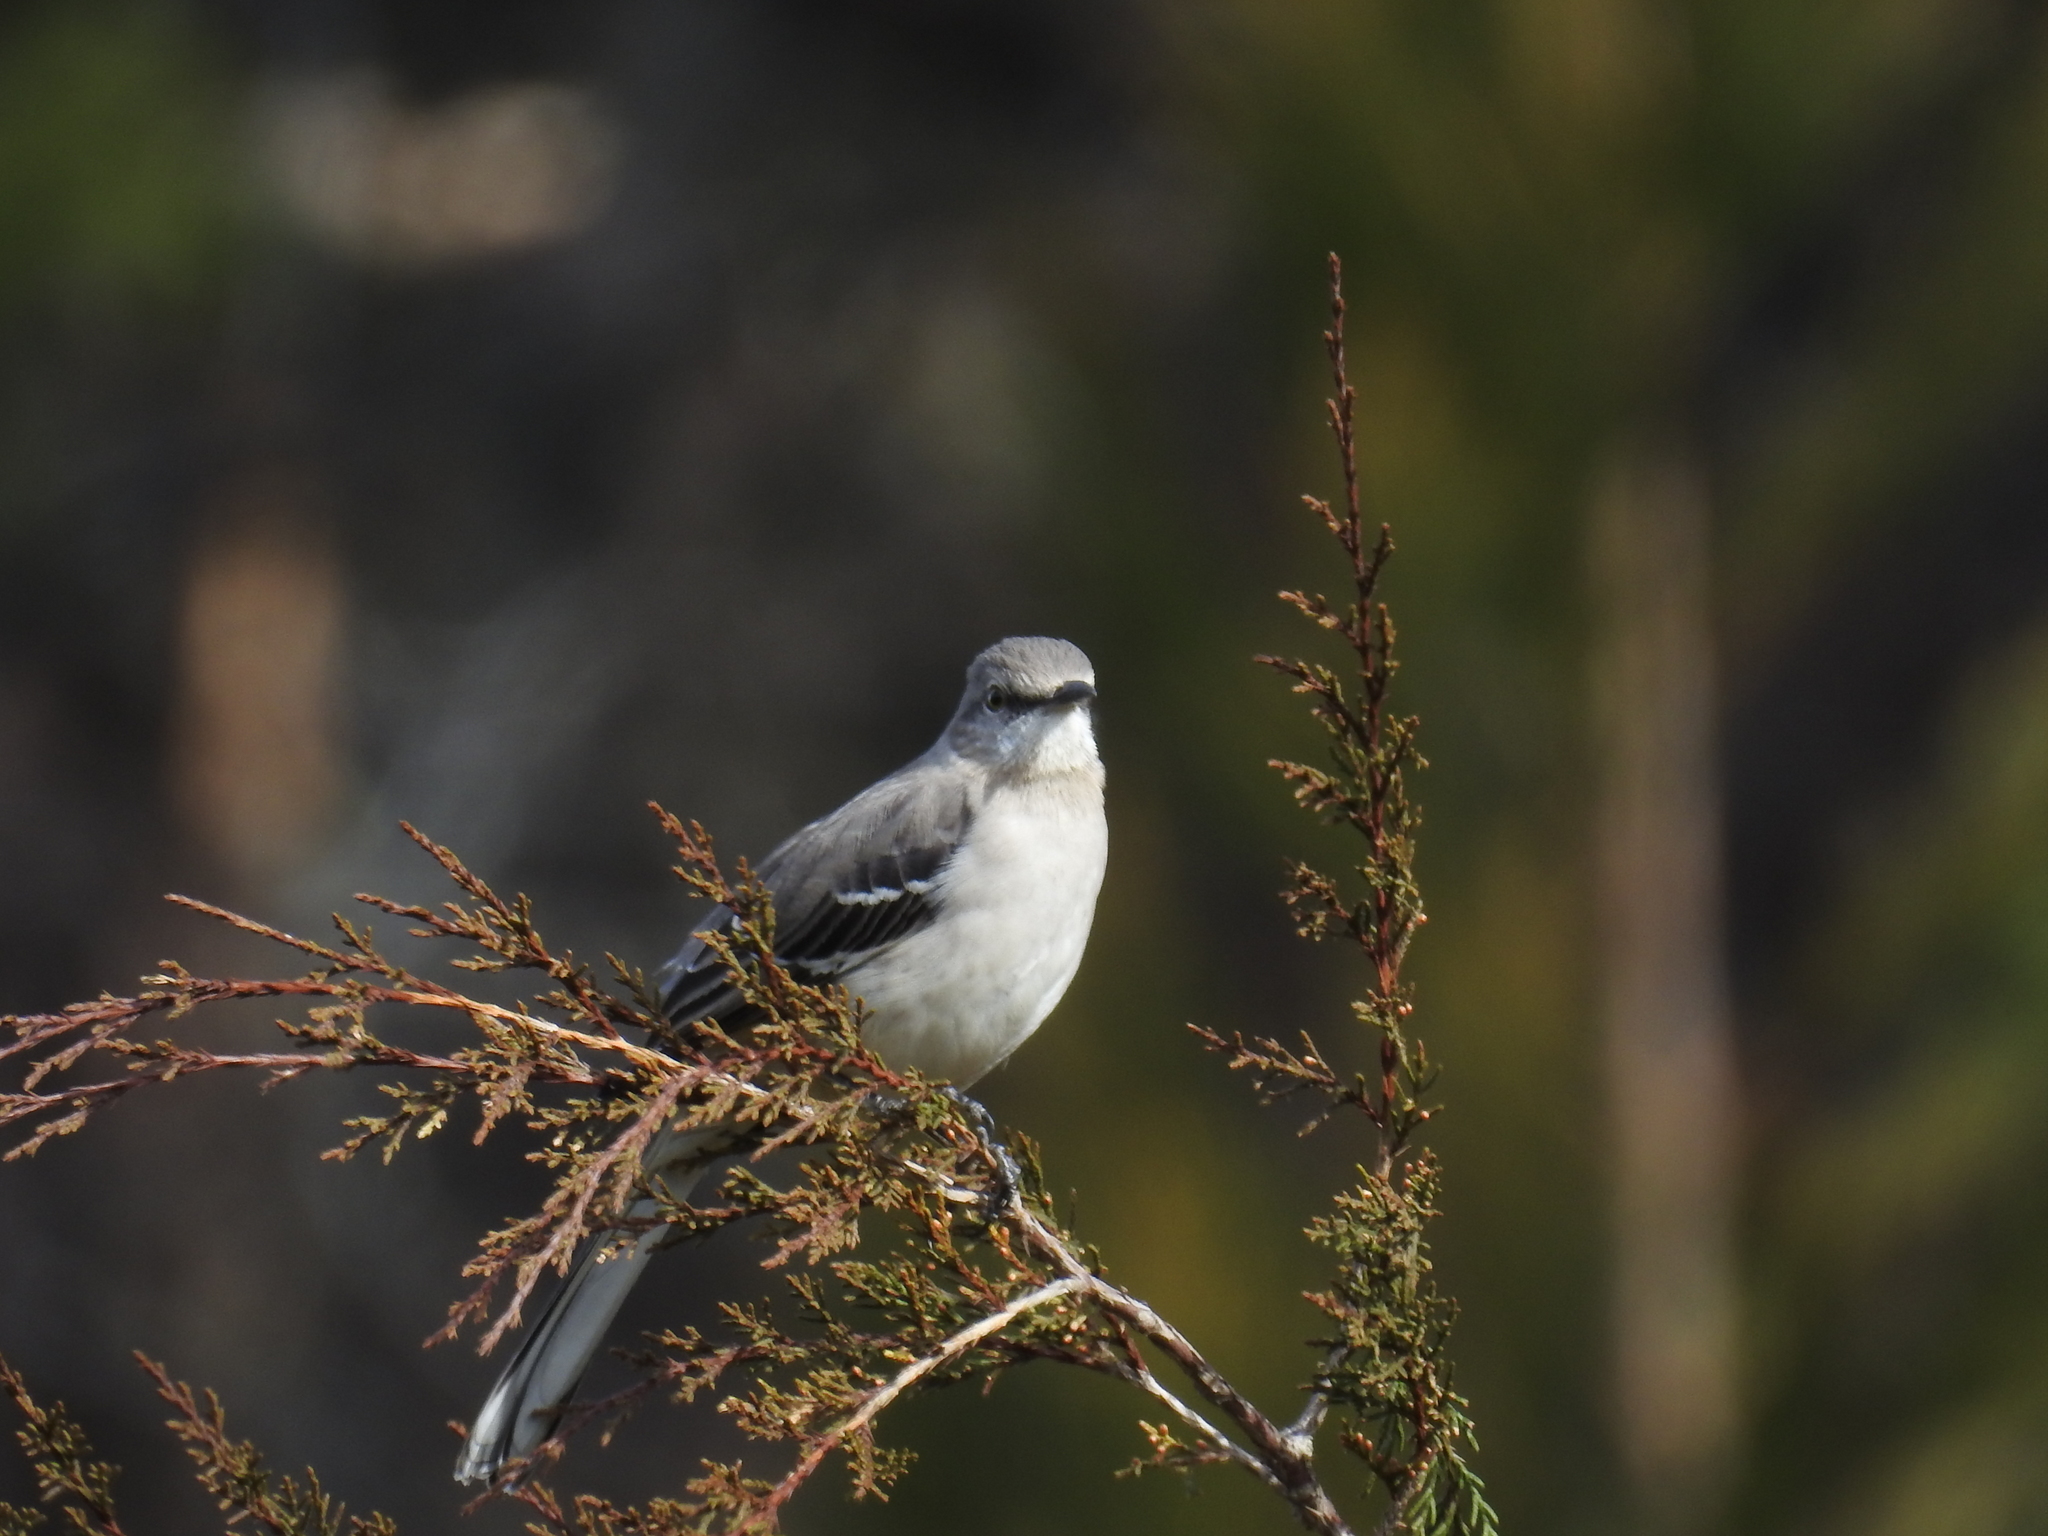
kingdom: Animalia
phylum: Chordata
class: Aves
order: Passeriformes
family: Mimidae
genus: Mimus
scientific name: Mimus polyglottos
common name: Northern mockingbird
